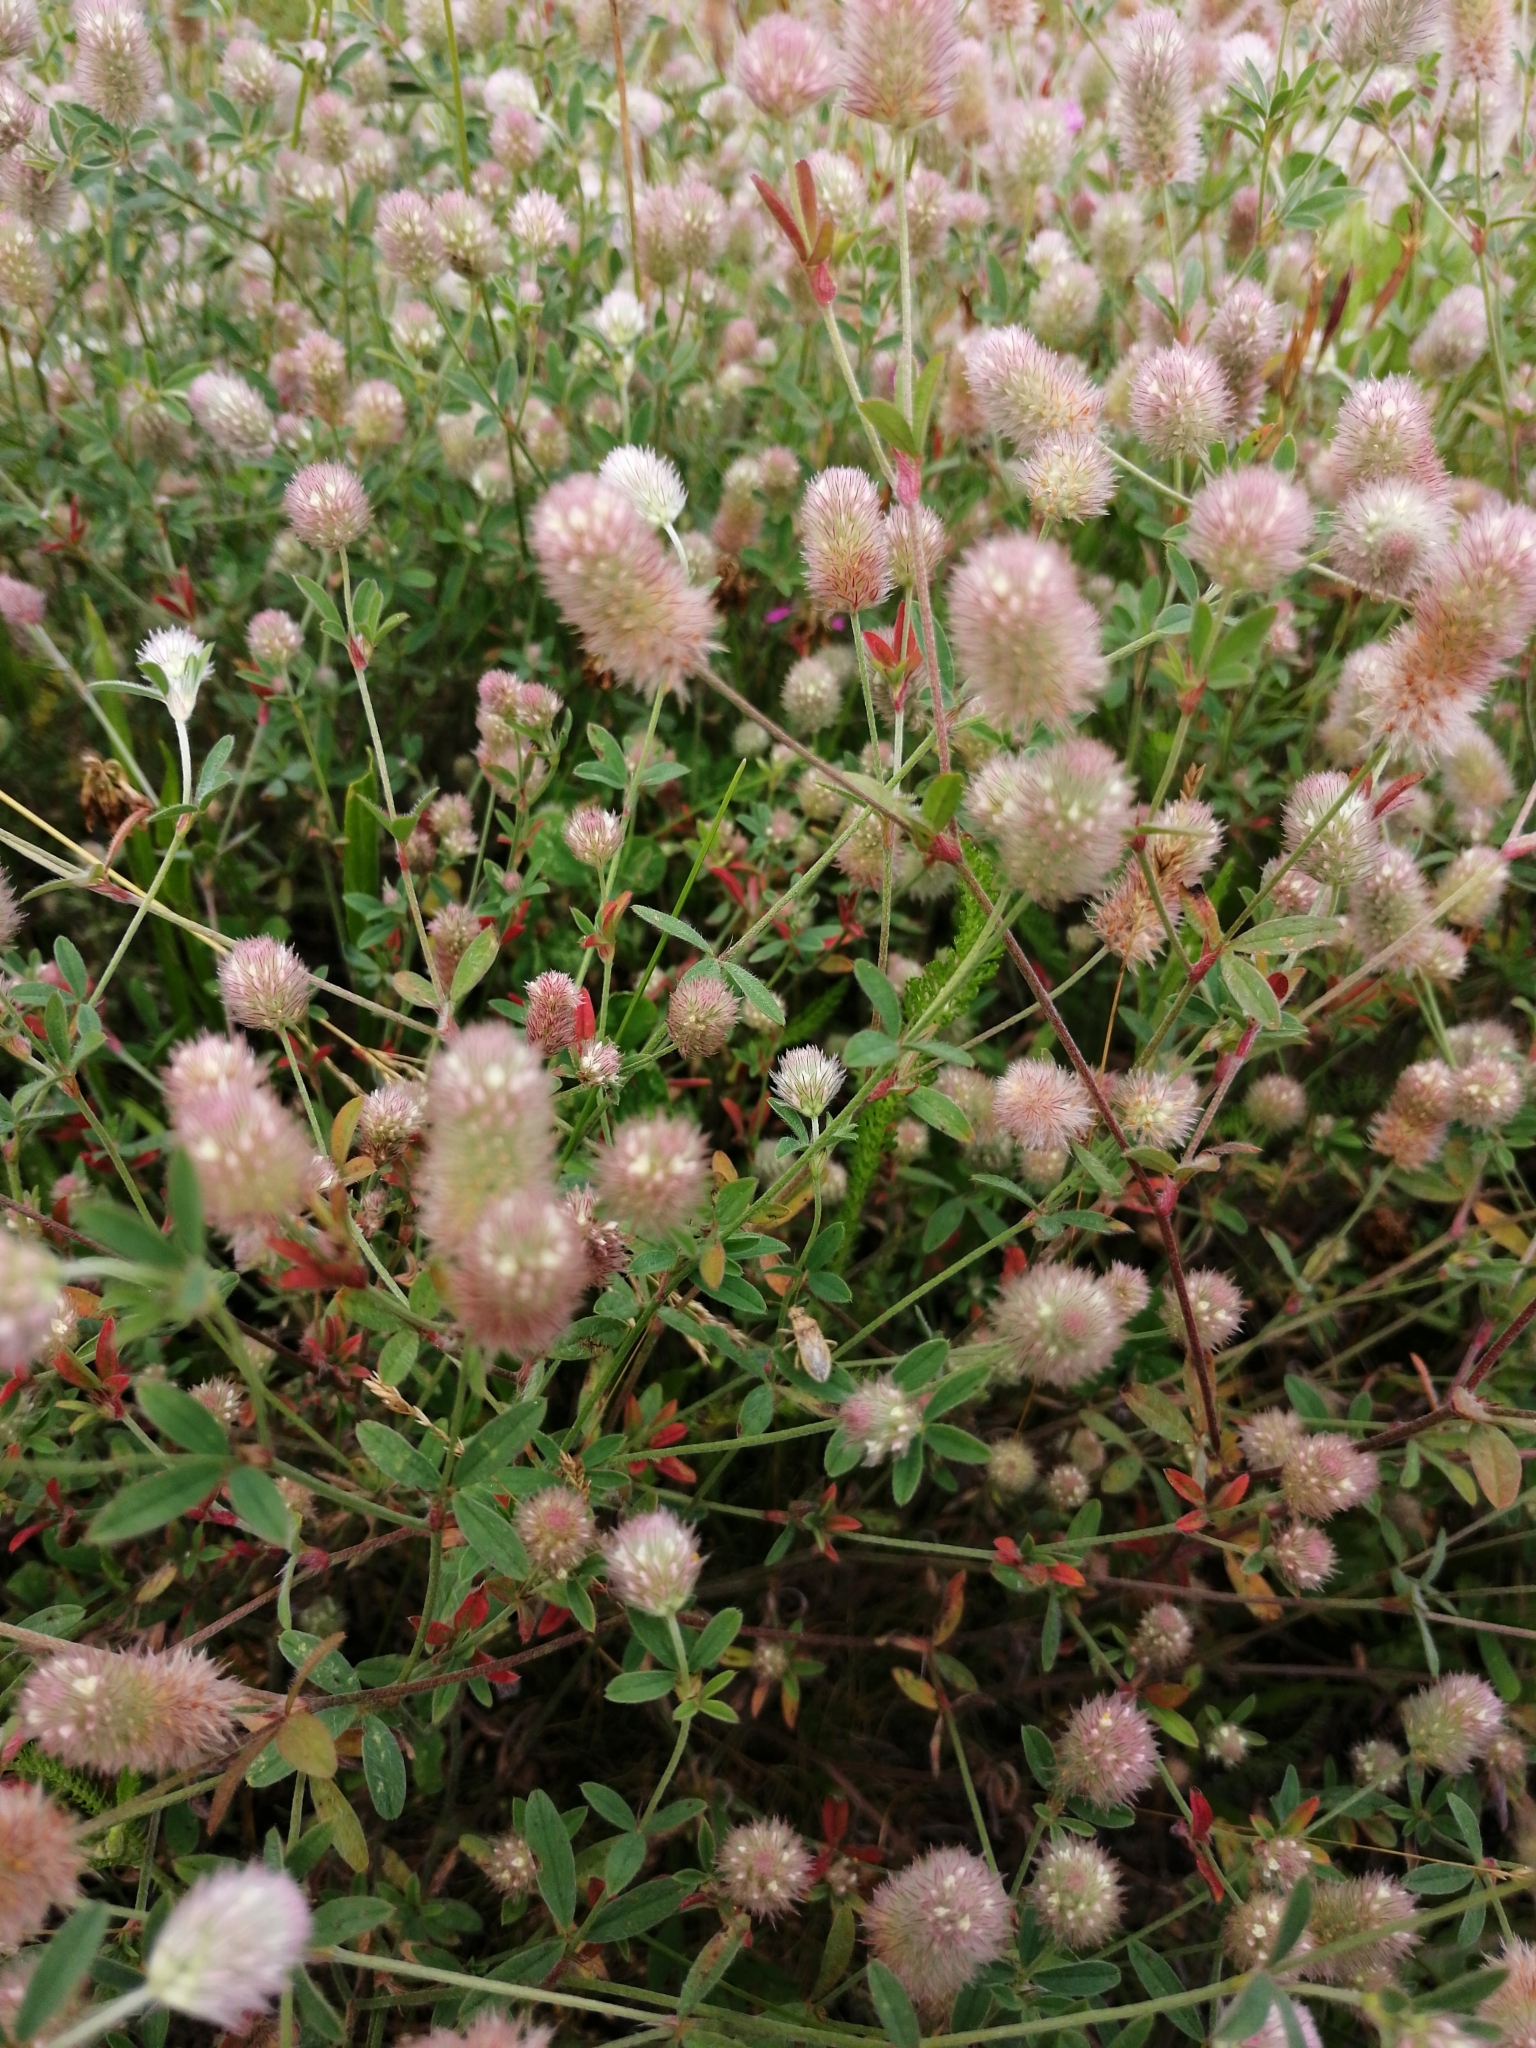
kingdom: Plantae
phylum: Tracheophyta
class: Magnoliopsida
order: Fabales
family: Fabaceae
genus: Trifolium
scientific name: Trifolium arvense
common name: Hare's-foot clover
